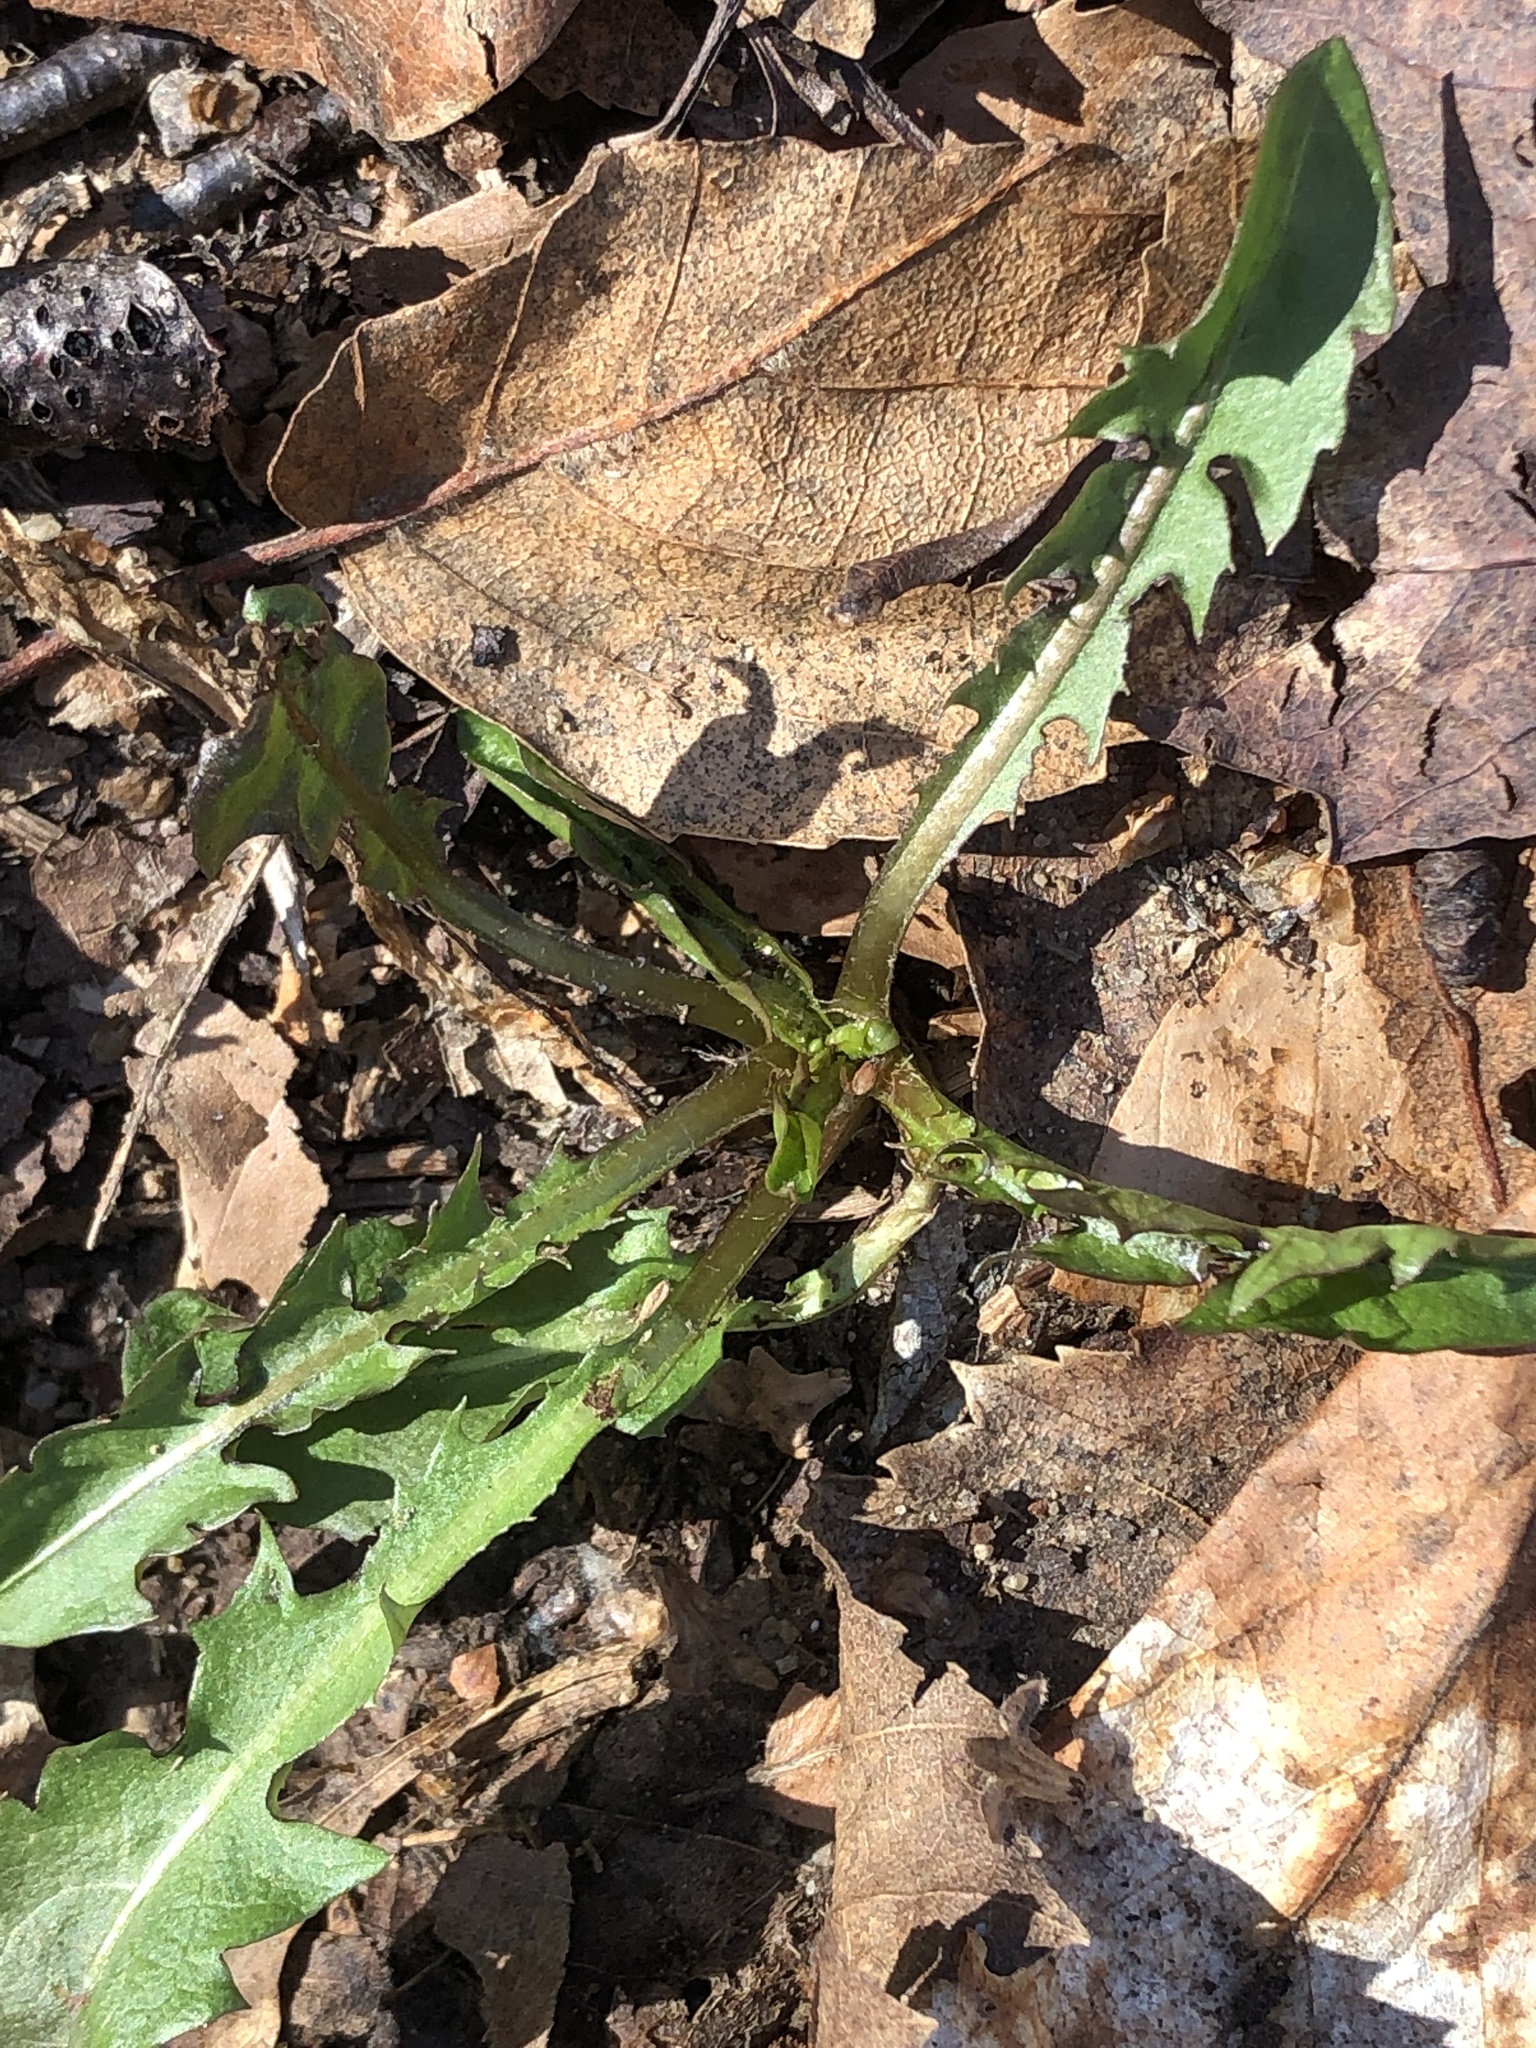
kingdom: Plantae
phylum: Tracheophyta
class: Magnoliopsida
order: Asterales
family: Asteraceae
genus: Taraxacum
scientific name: Taraxacum officinale
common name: Common dandelion
